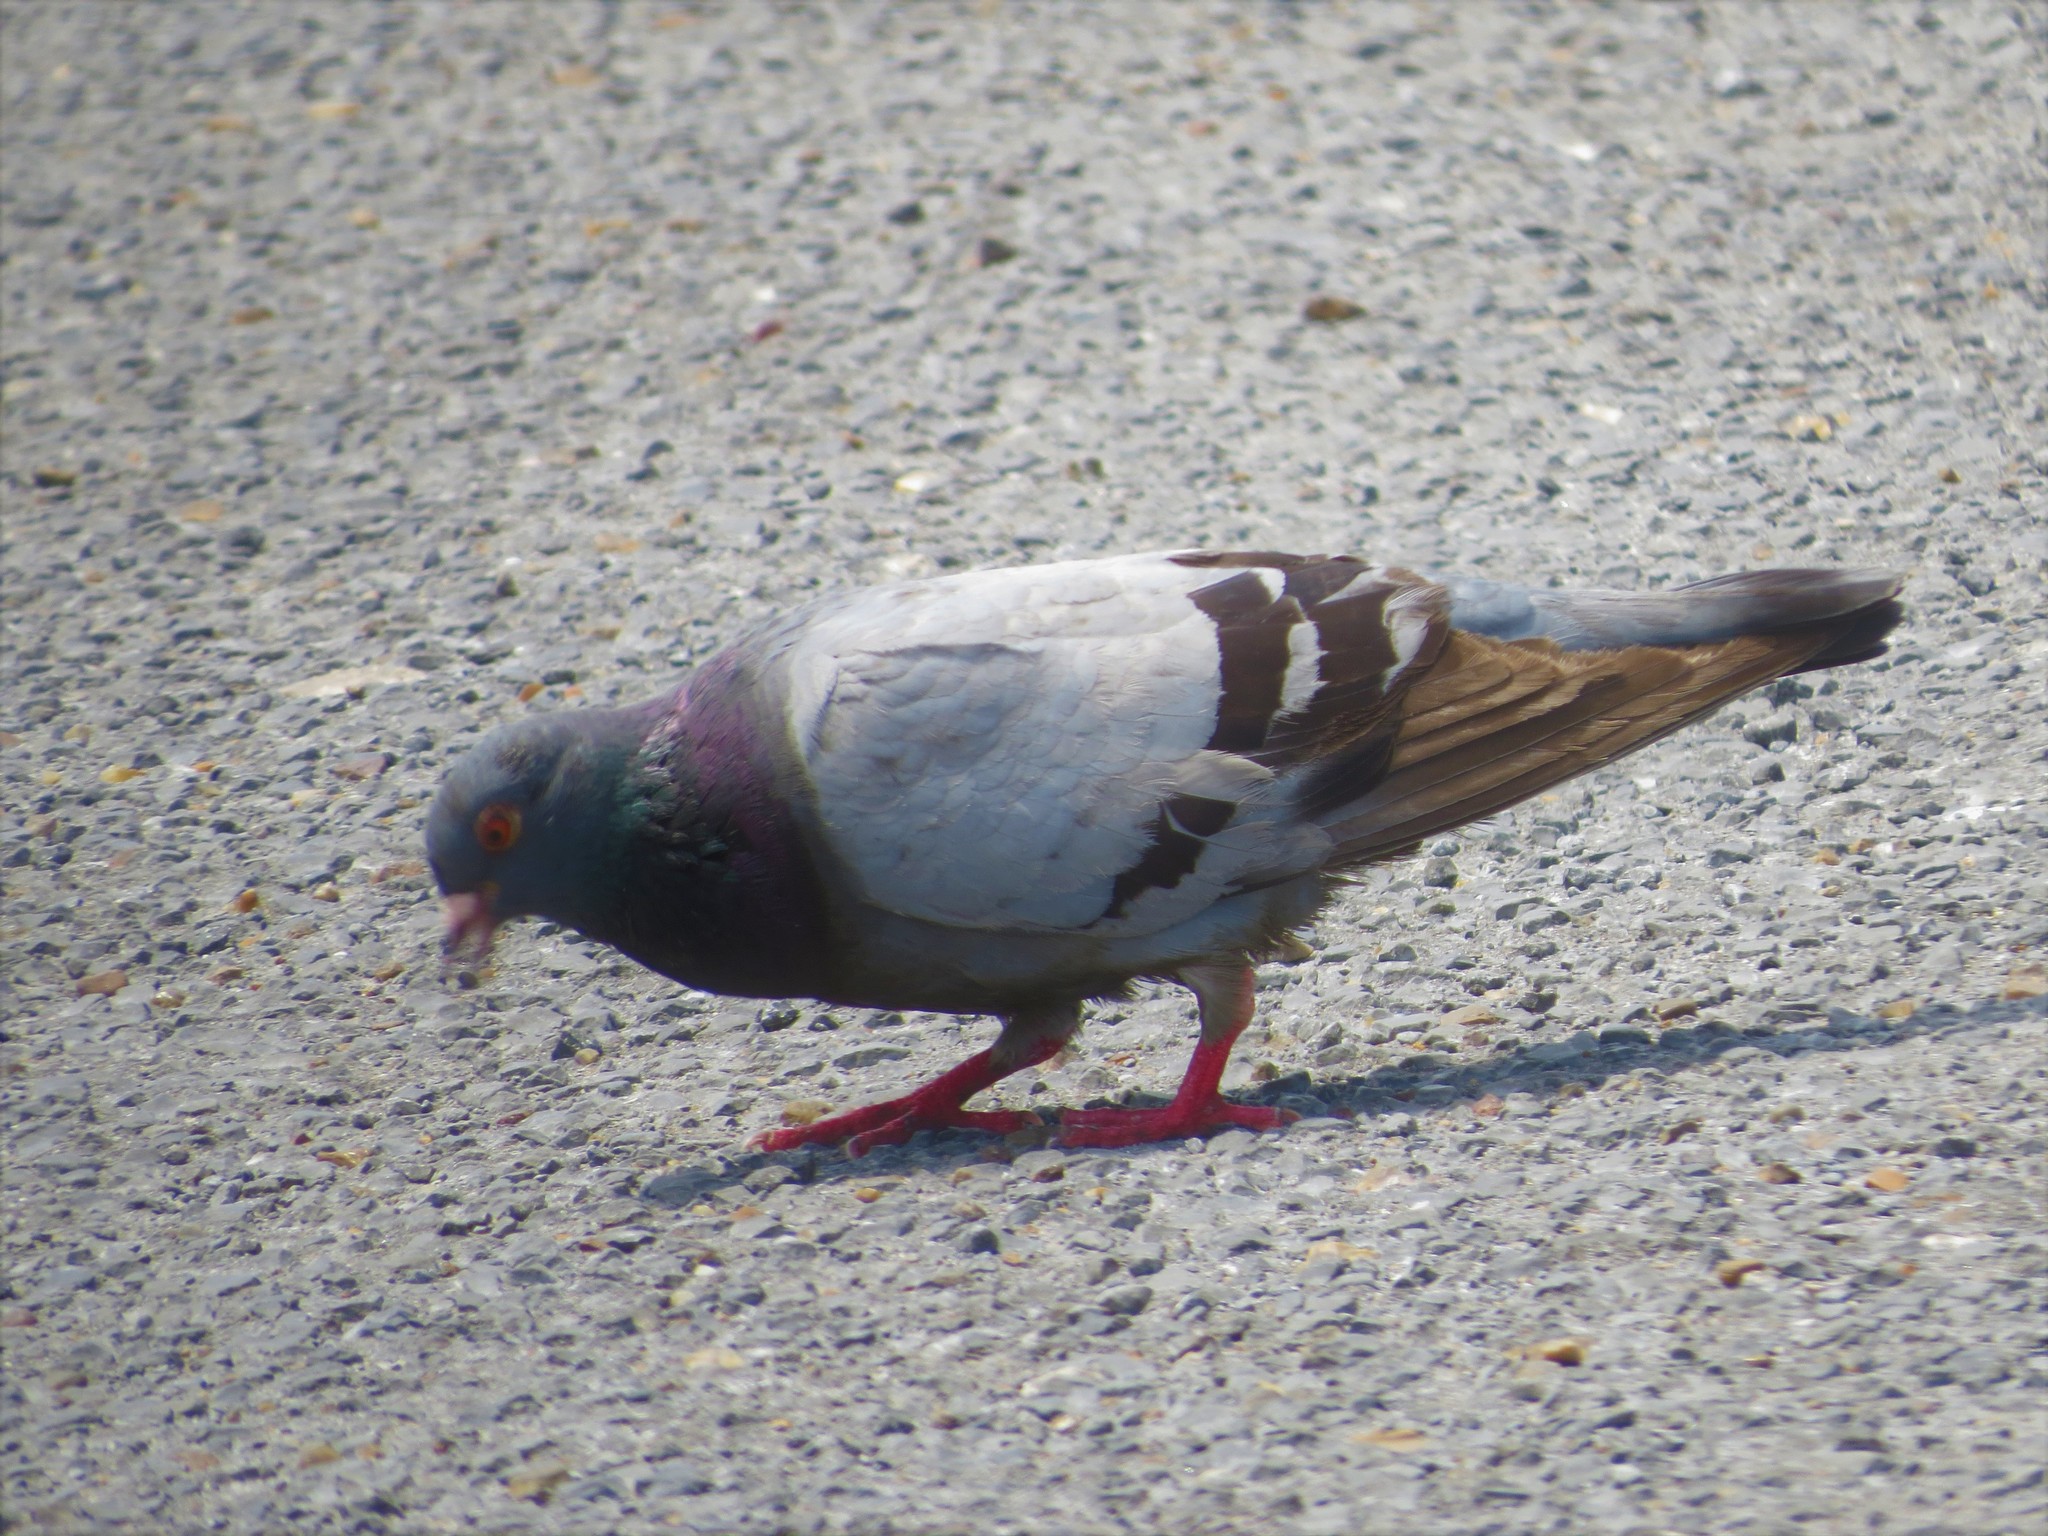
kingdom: Animalia
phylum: Chordata
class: Aves
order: Columbiformes
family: Columbidae
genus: Columba
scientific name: Columba livia
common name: Rock pigeon
